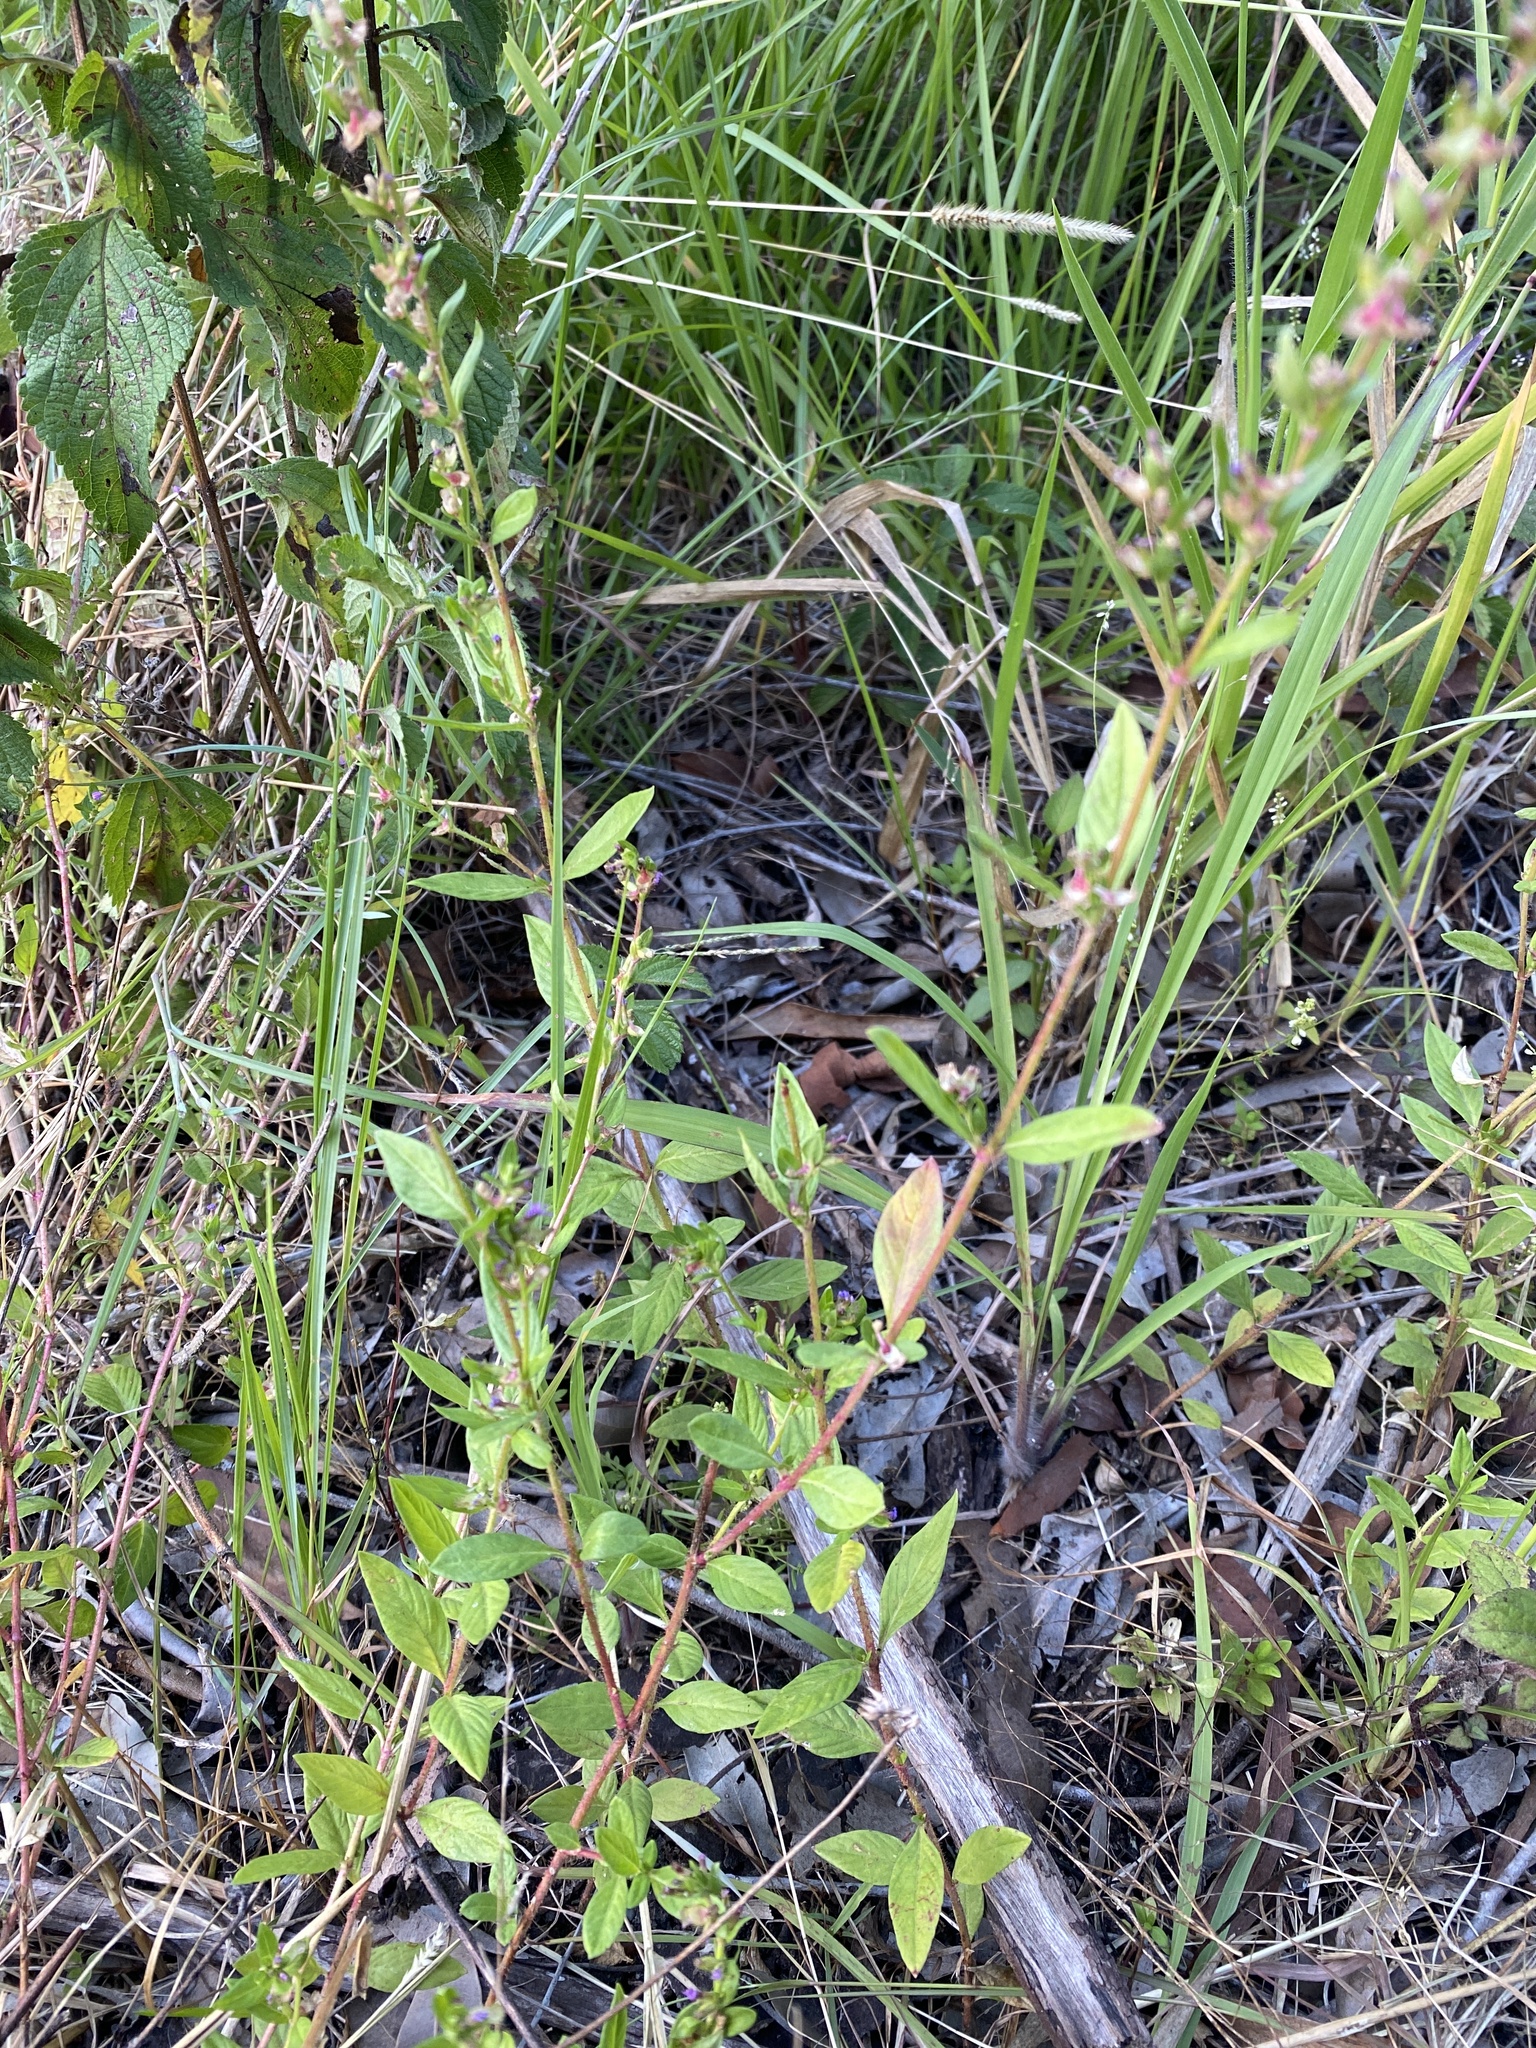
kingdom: Plantae
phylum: Tracheophyta
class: Magnoliopsida
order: Myrtales
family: Lythraceae
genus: Cuphea
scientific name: Cuphea carthagenensis
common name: Colombian waxweed
